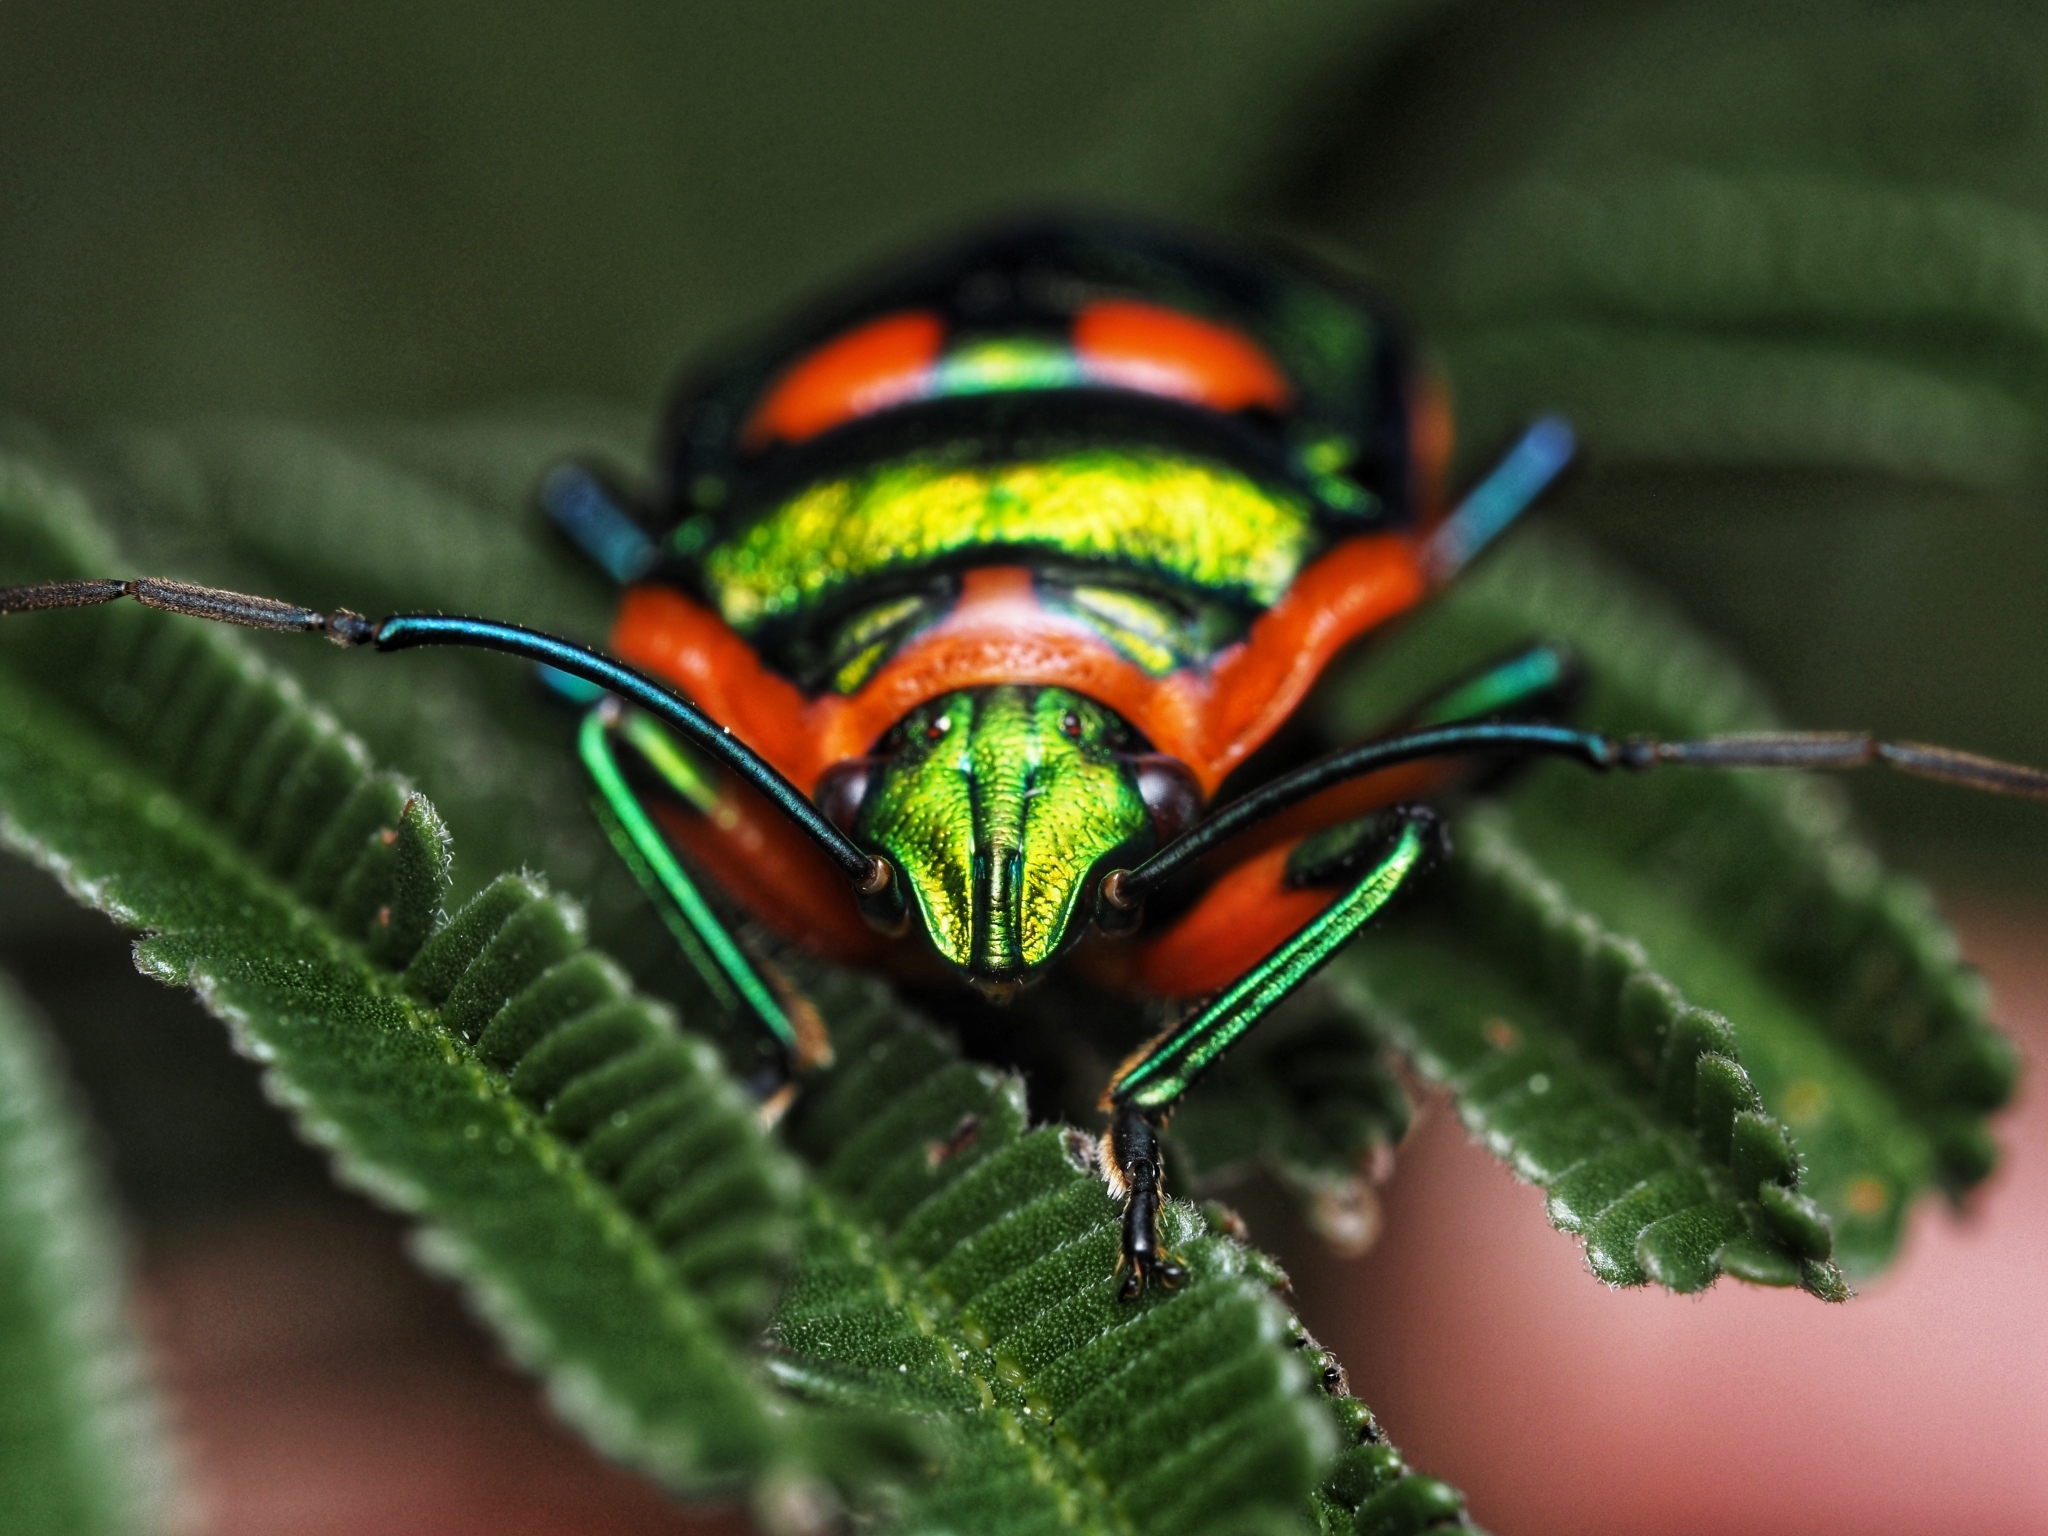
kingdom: Animalia
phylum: Arthropoda
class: Insecta
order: Hemiptera
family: Scutelleridae
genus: Scutiphora
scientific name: Scutiphora pedicellata
